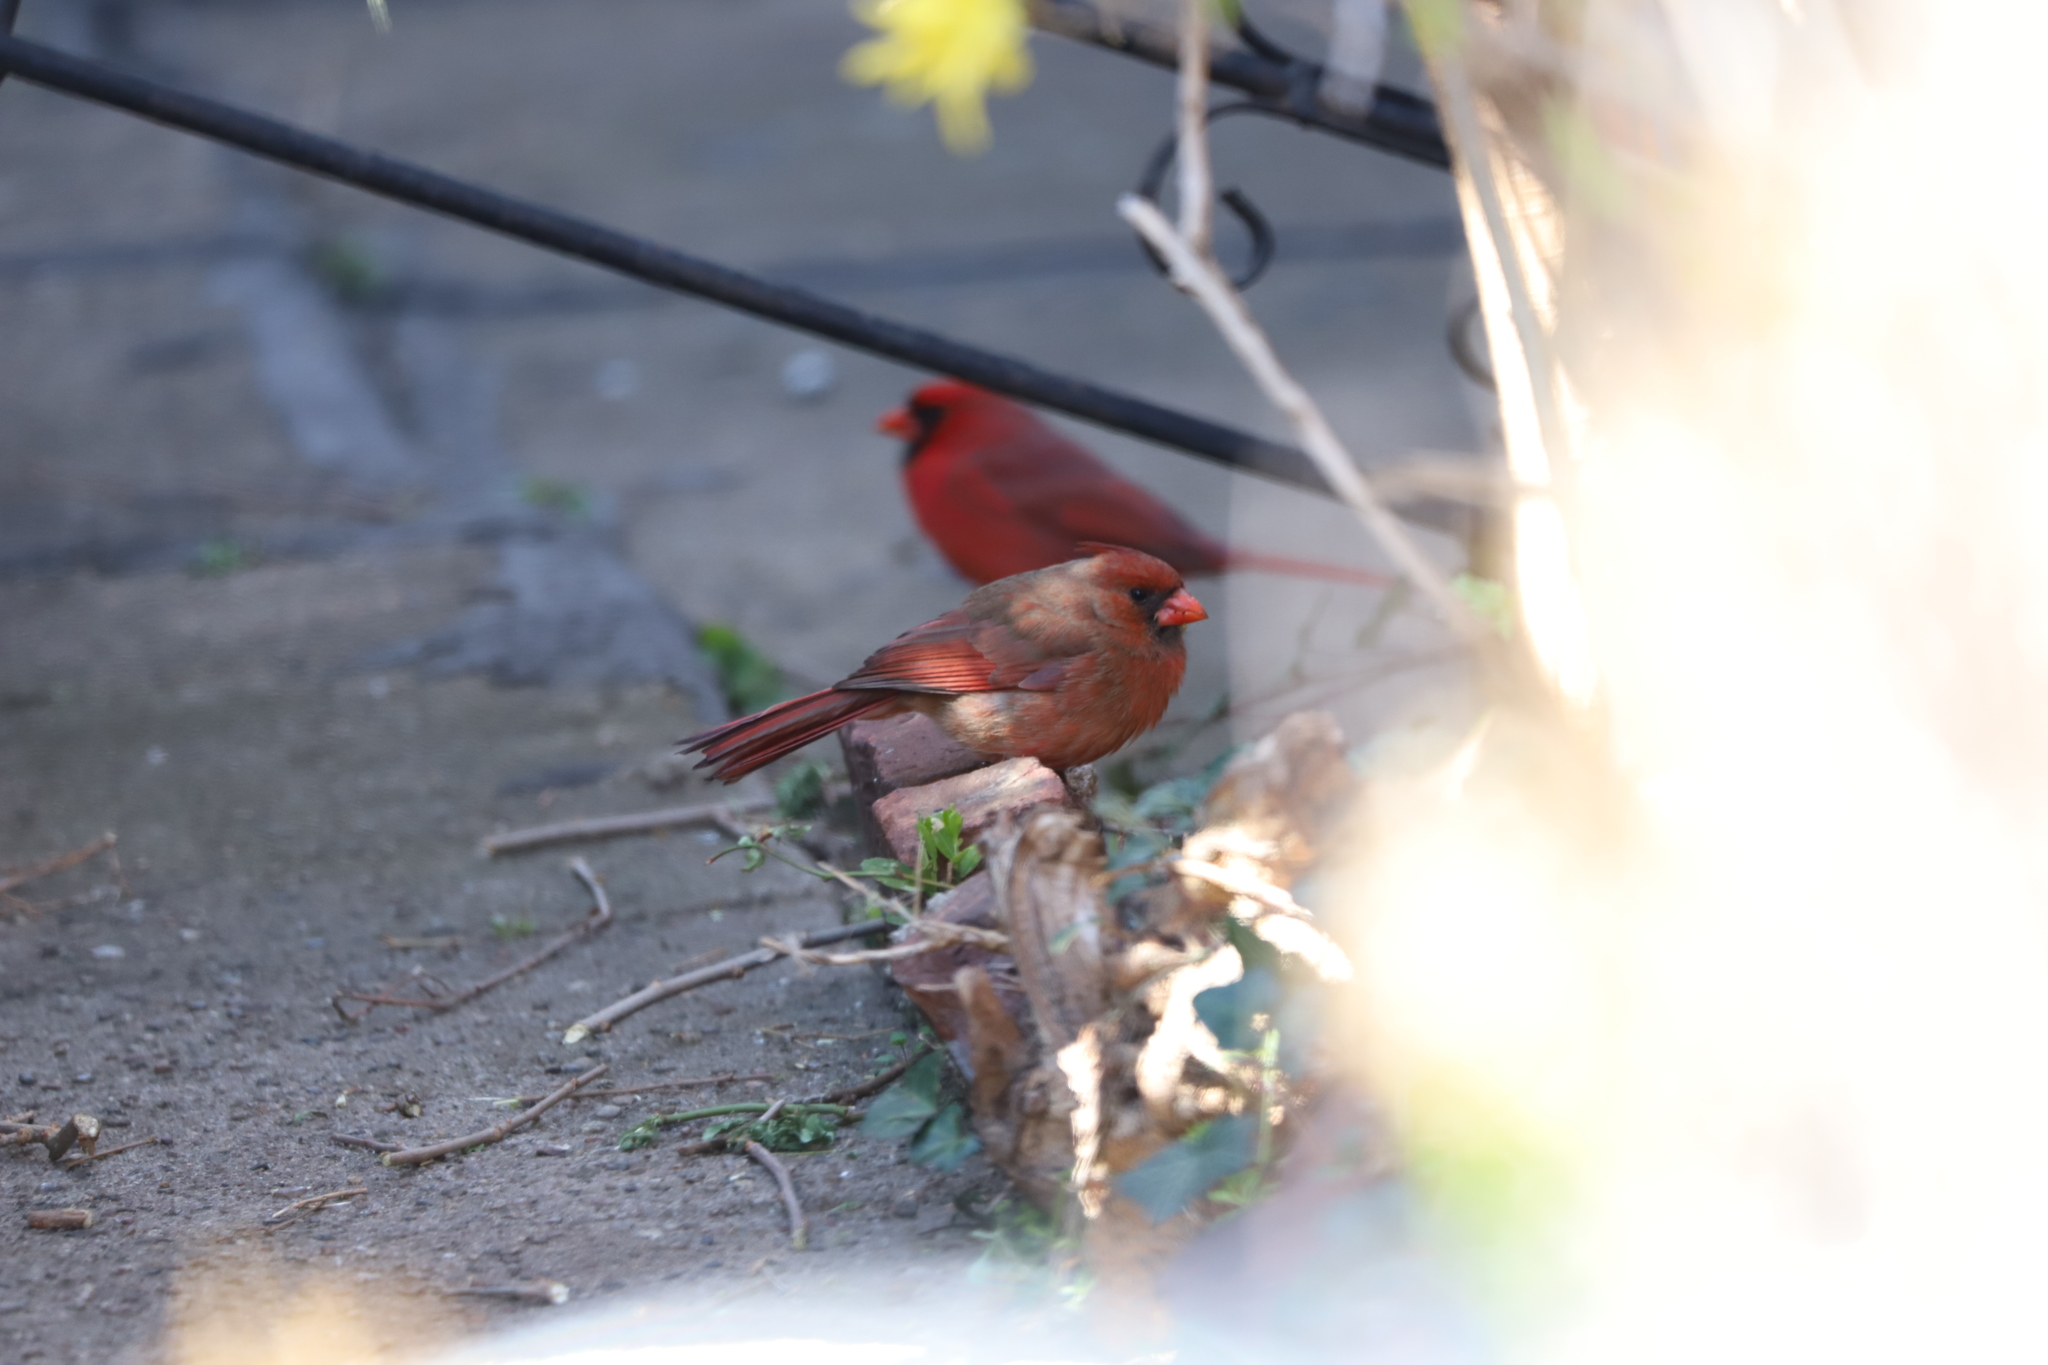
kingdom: Animalia
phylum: Chordata
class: Aves
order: Passeriformes
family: Cardinalidae
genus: Cardinalis
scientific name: Cardinalis cardinalis
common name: Northern cardinal
